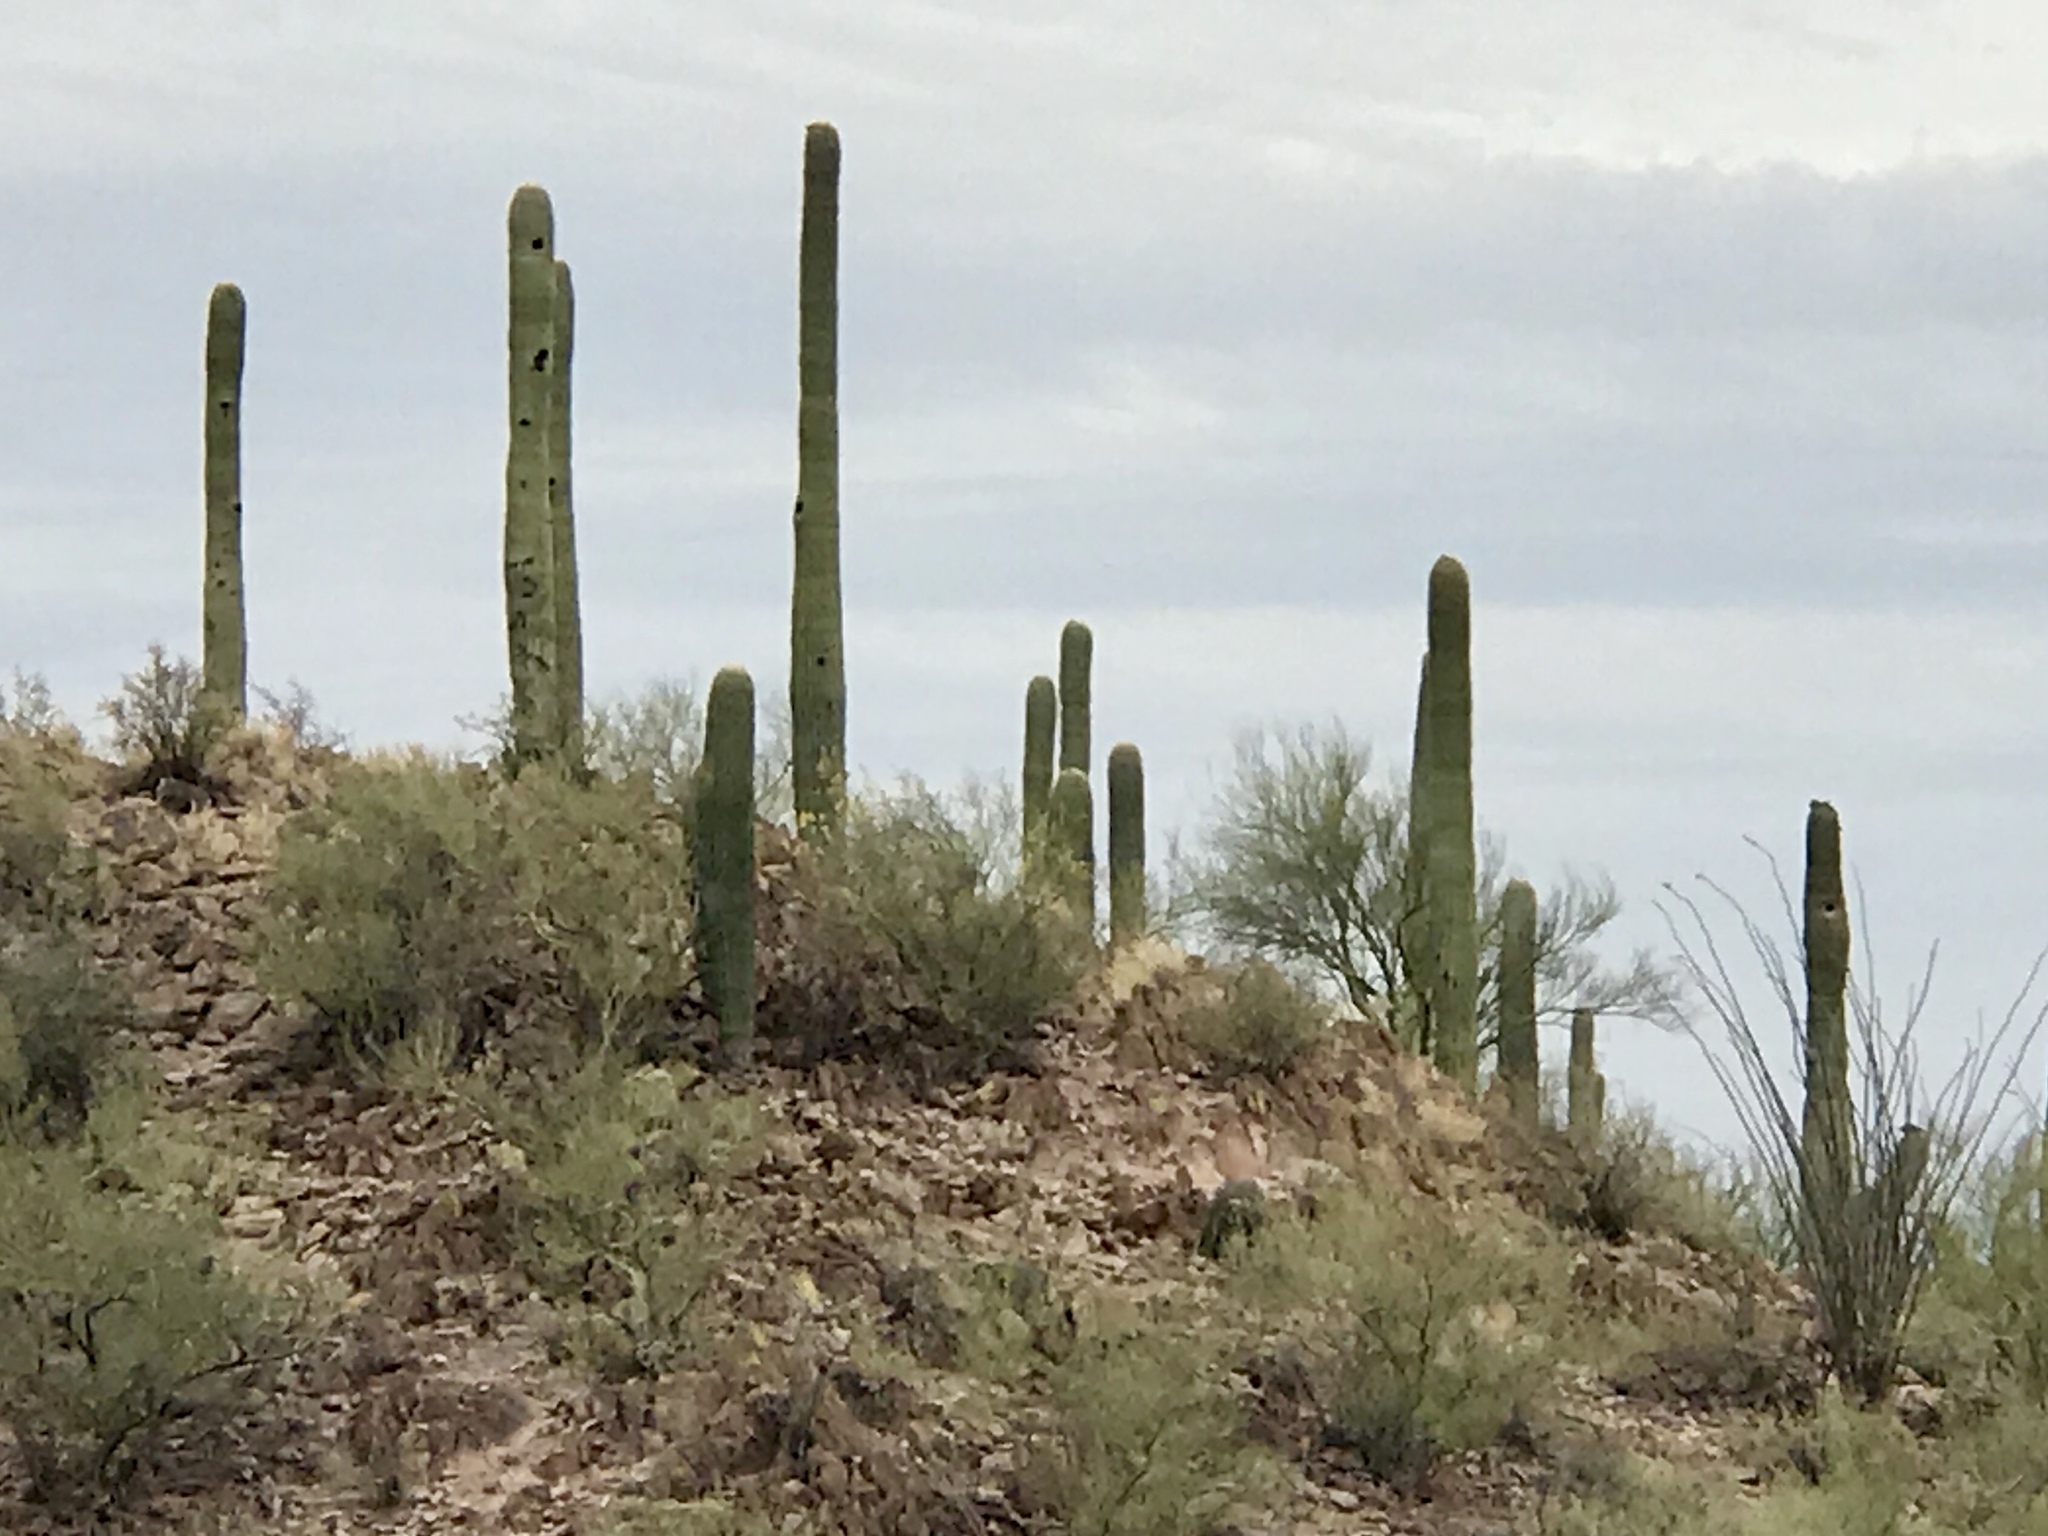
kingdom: Plantae
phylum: Tracheophyta
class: Magnoliopsida
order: Caryophyllales
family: Cactaceae
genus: Carnegiea
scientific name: Carnegiea gigantea
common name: Saguaro
